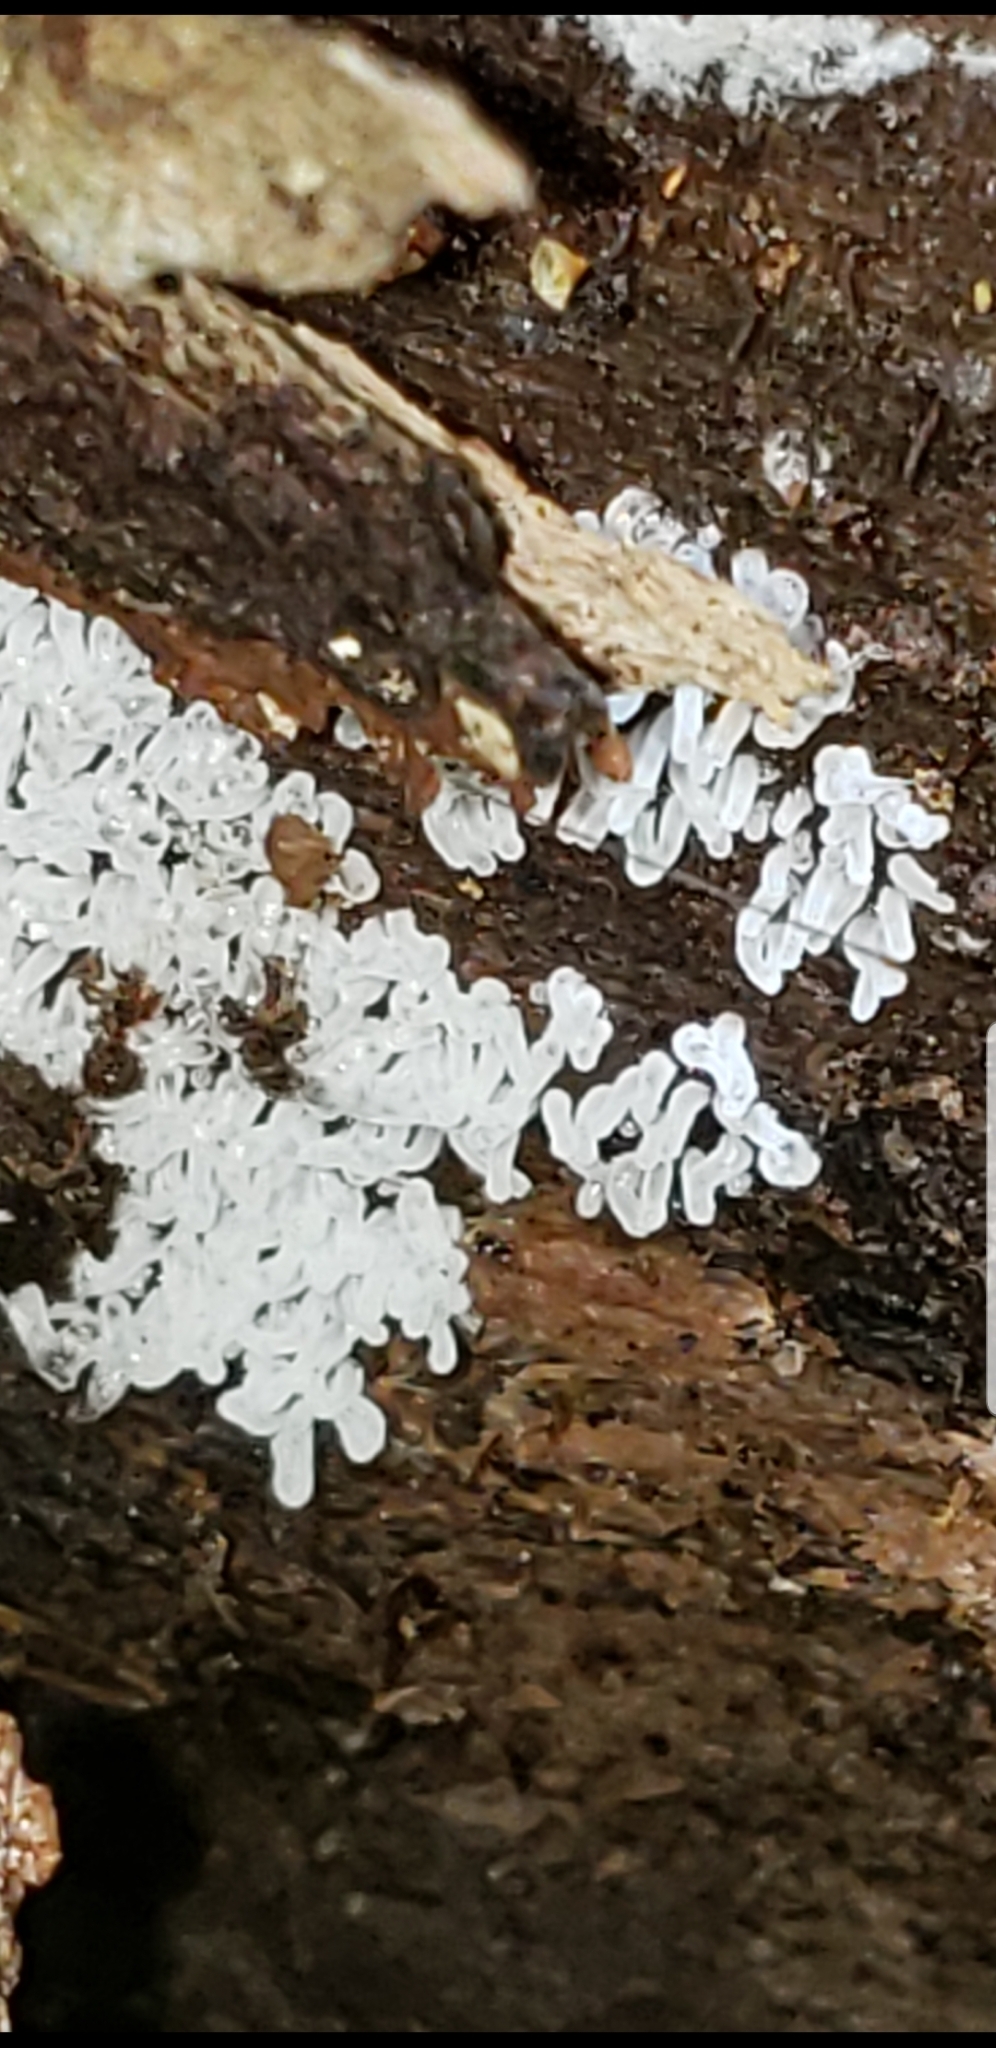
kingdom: Protozoa
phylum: Mycetozoa
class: Protosteliomycetes
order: Ceratiomyxales
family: Ceratiomyxaceae
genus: Ceratiomyxa
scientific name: Ceratiomyxa fruticulosa
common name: Honeycomb coral slime mold
